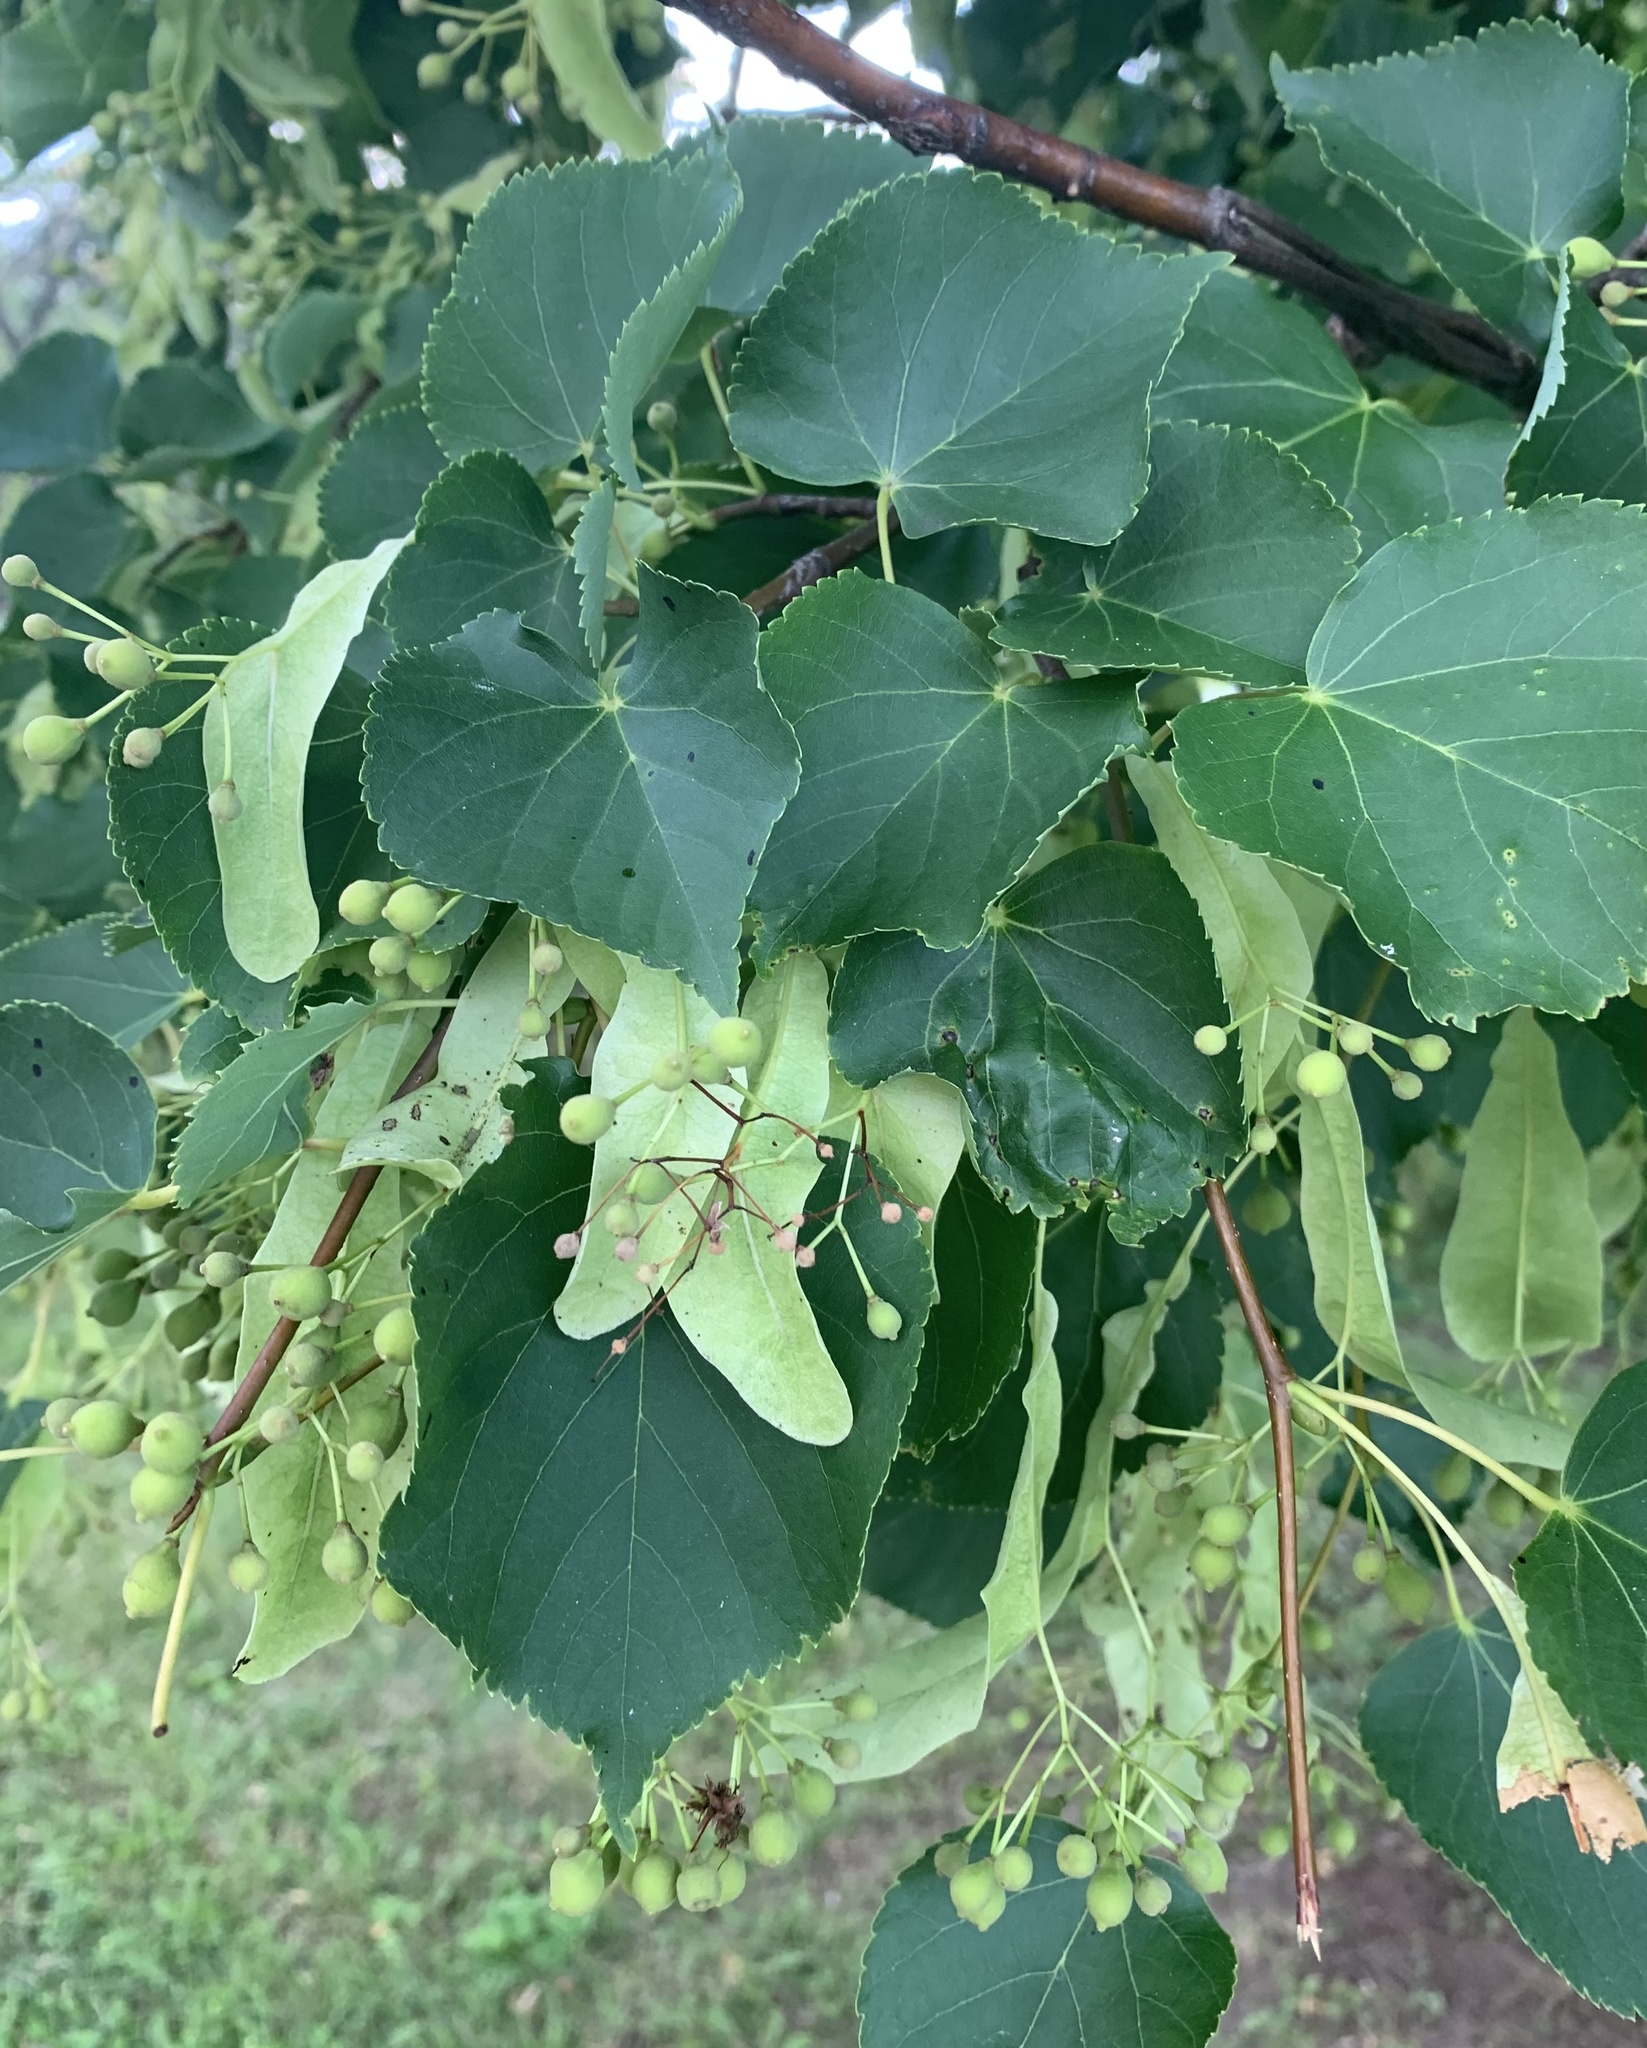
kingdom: Plantae
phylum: Tracheophyta
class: Magnoliopsida
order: Malvales
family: Malvaceae
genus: Tilia
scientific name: Tilia cordata
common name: Small-leaved lime
